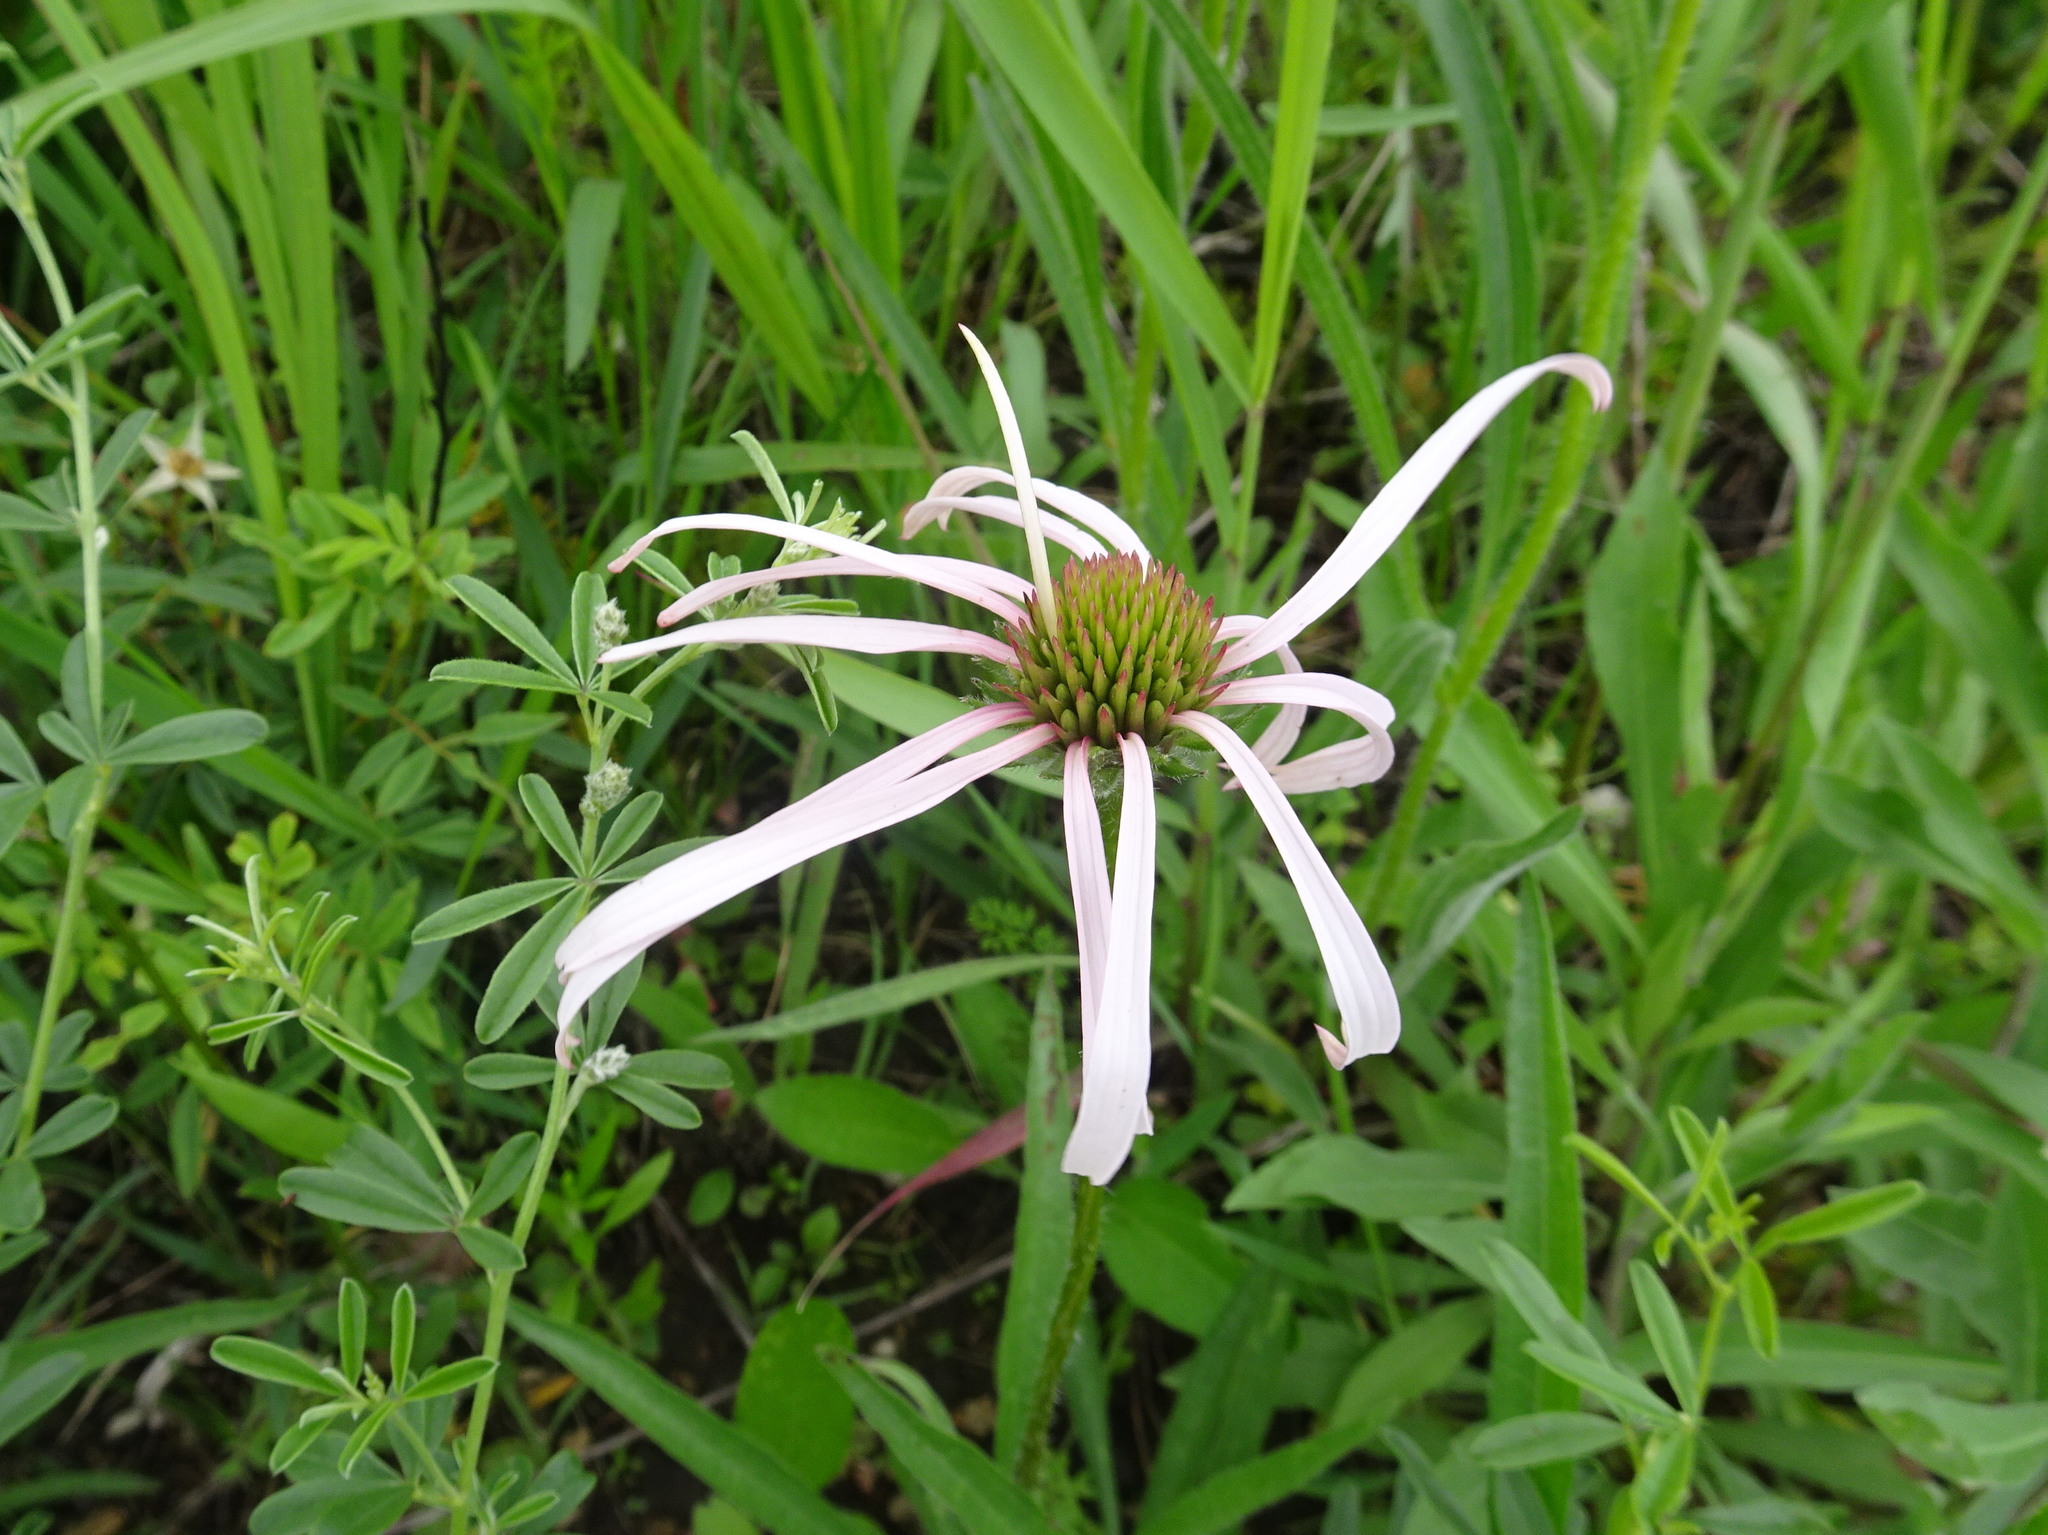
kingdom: Plantae
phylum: Tracheophyta
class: Magnoliopsida
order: Asterales
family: Asteraceae
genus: Echinacea
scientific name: Echinacea pallida
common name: Pale echinacea
